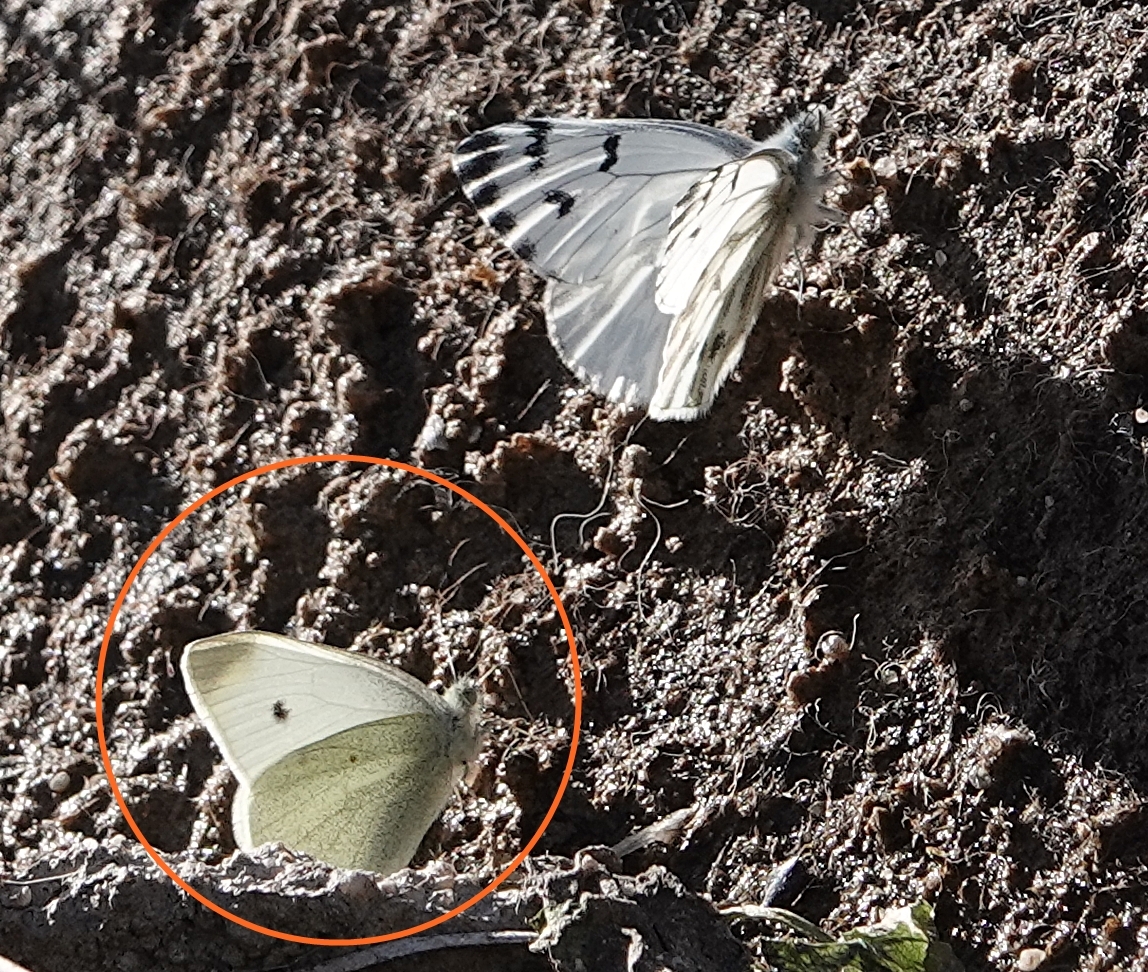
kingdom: Animalia
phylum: Arthropoda
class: Insecta
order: Lepidoptera
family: Pieridae
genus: Pieris
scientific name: Pieris rapae
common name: Small white
